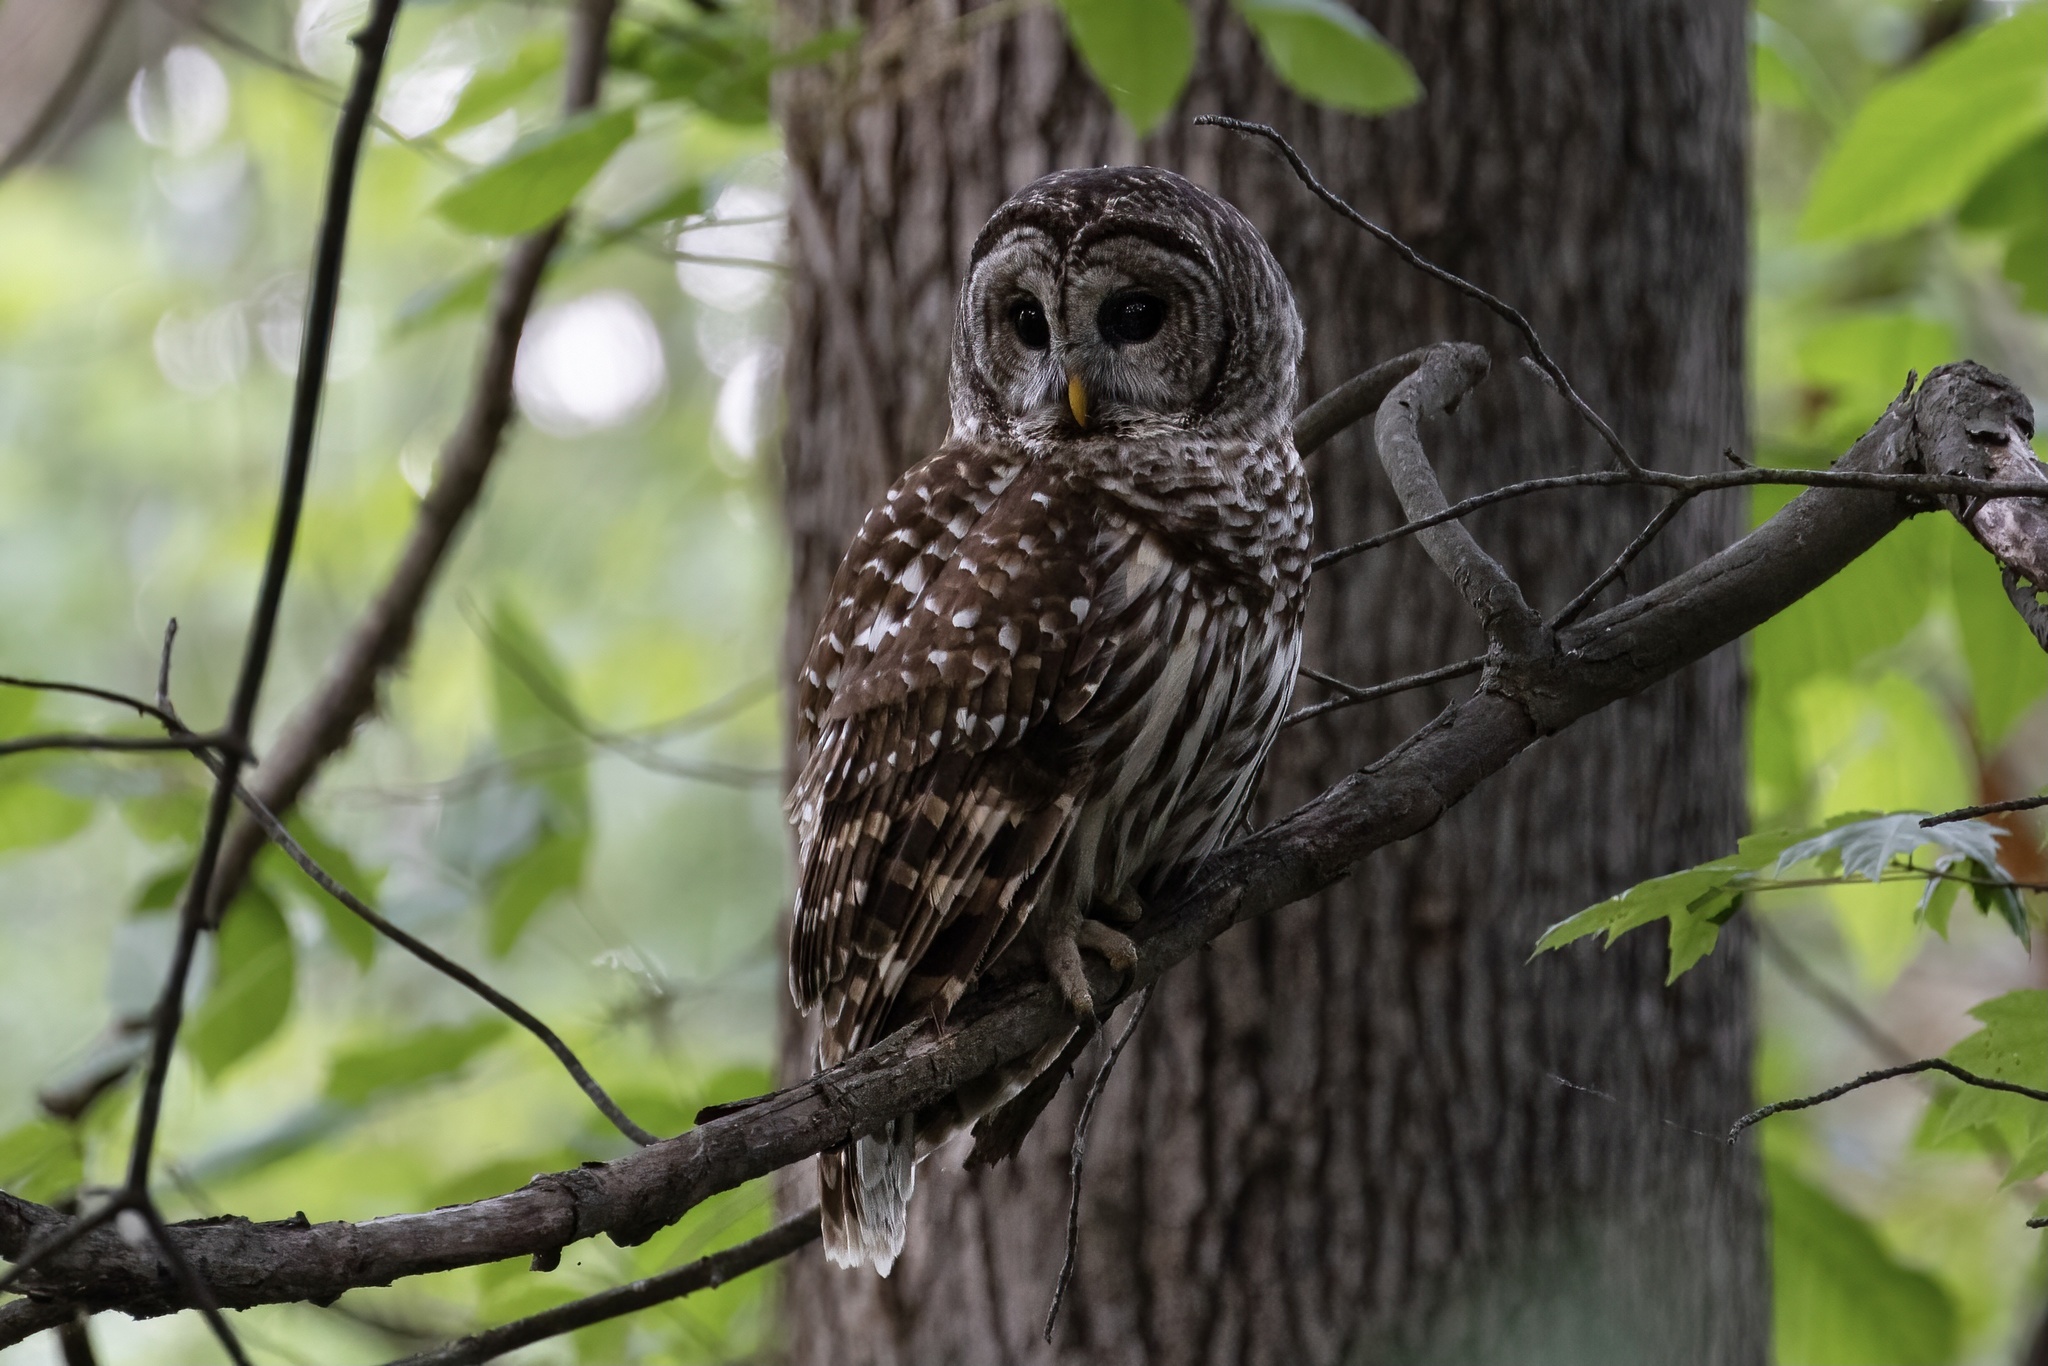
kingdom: Animalia
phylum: Chordata
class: Aves
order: Strigiformes
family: Strigidae
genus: Strix
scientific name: Strix varia
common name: Barred owl
